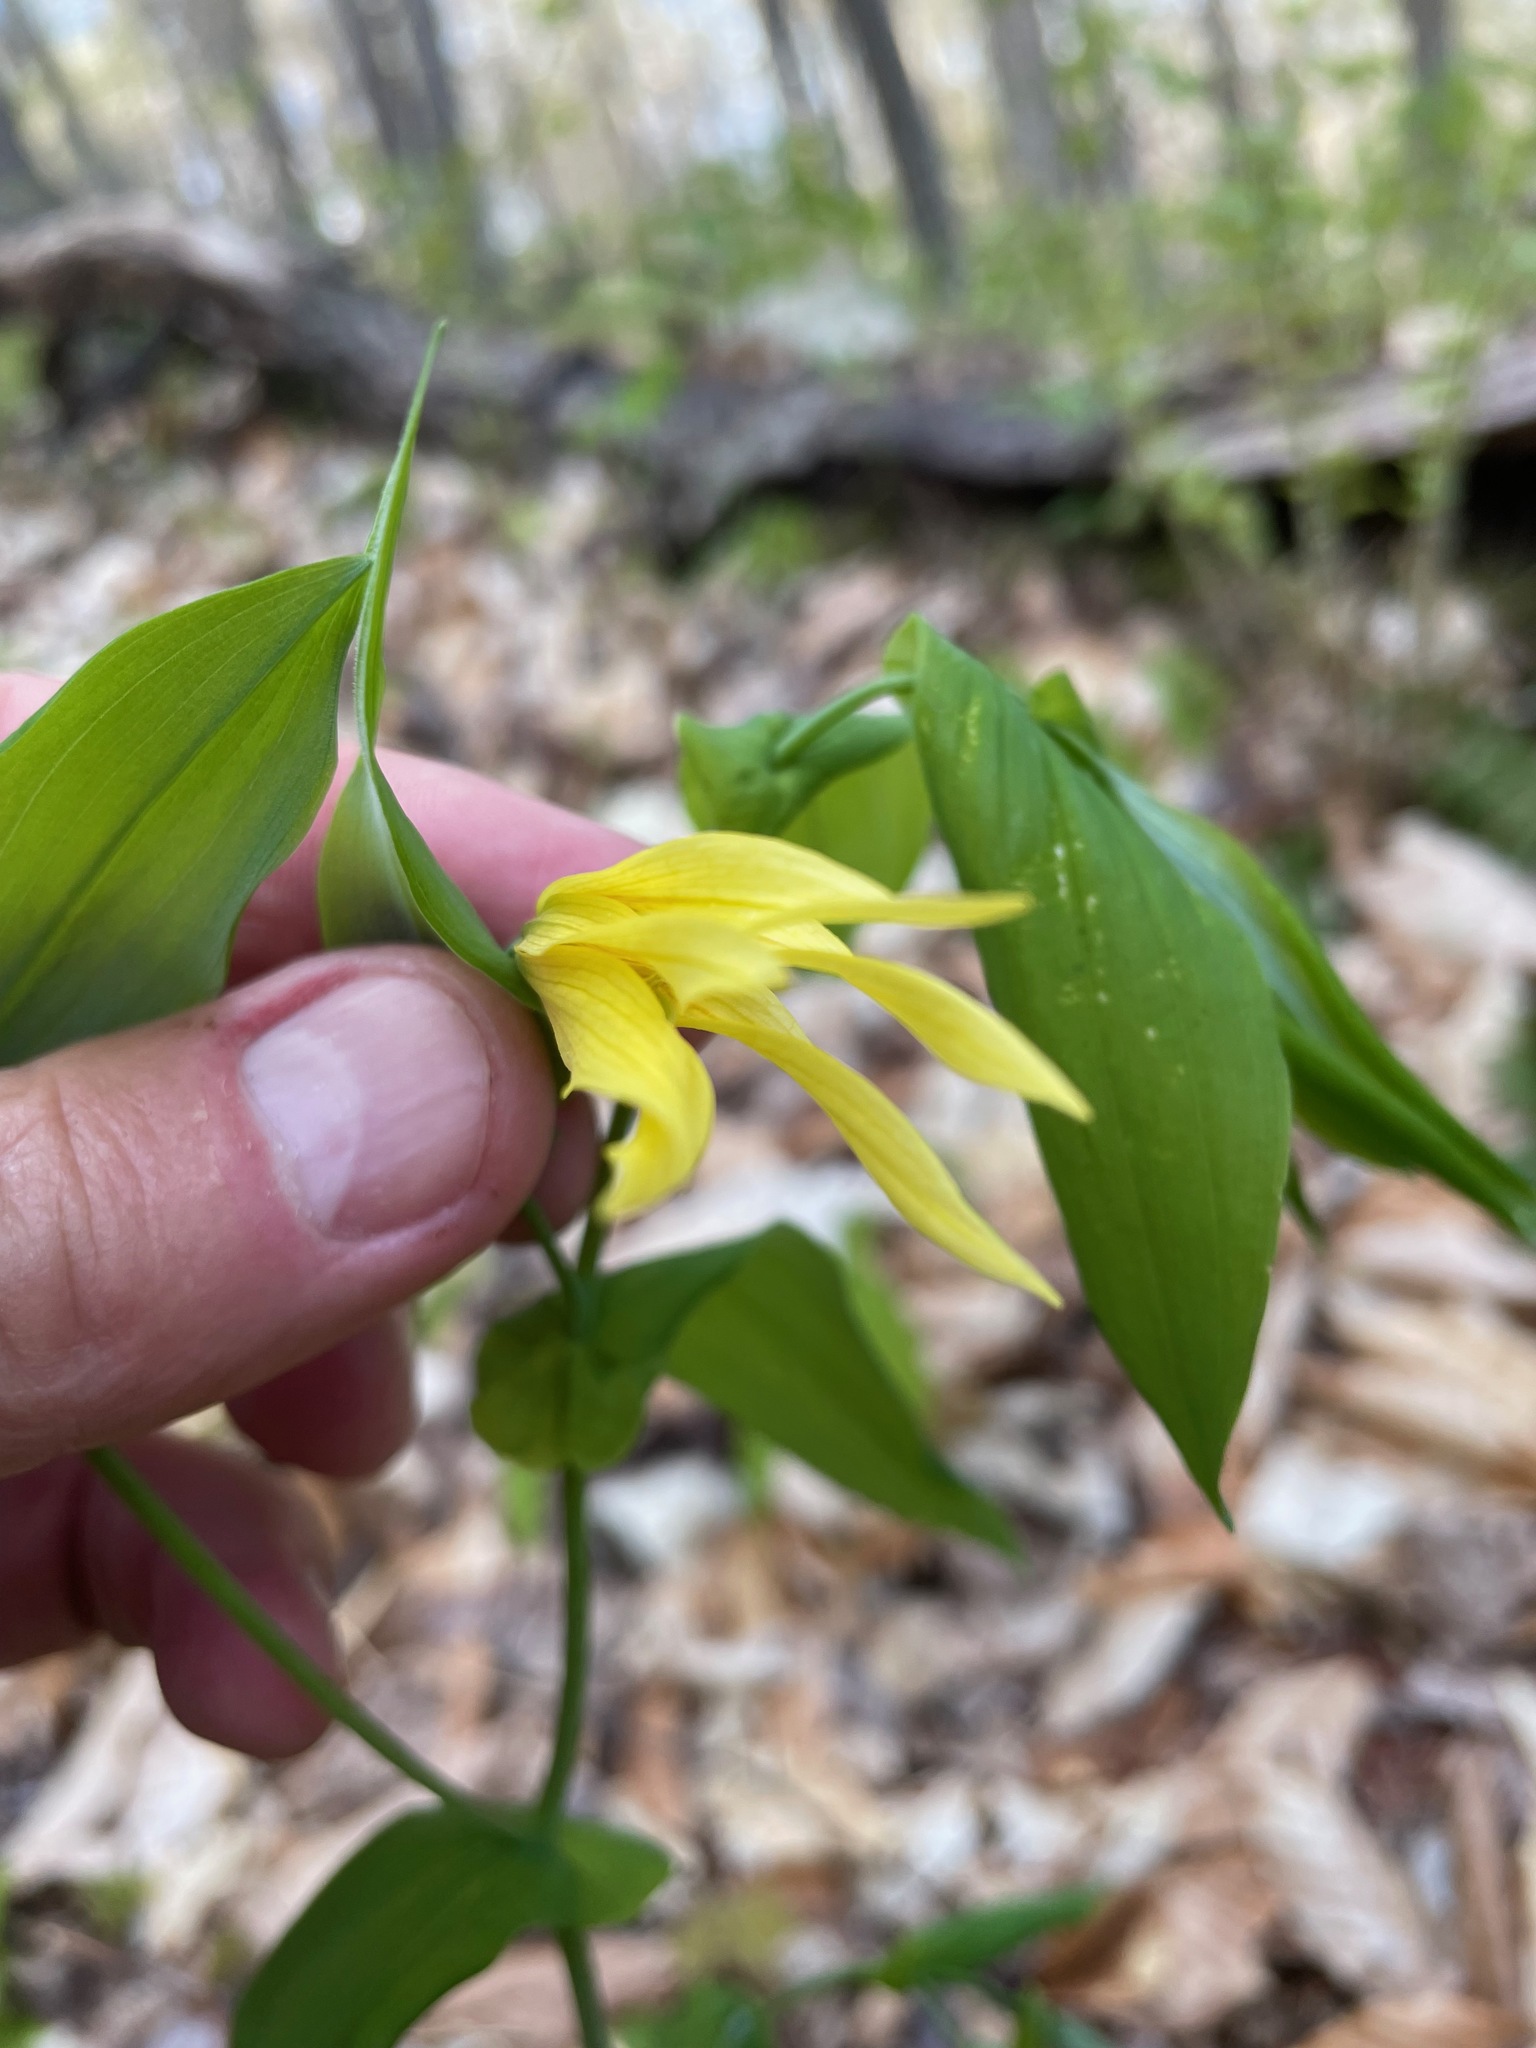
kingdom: Plantae
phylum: Tracheophyta
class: Liliopsida
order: Liliales
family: Colchicaceae
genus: Uvularia
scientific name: Uvularia grandiflora
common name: Bellwort
